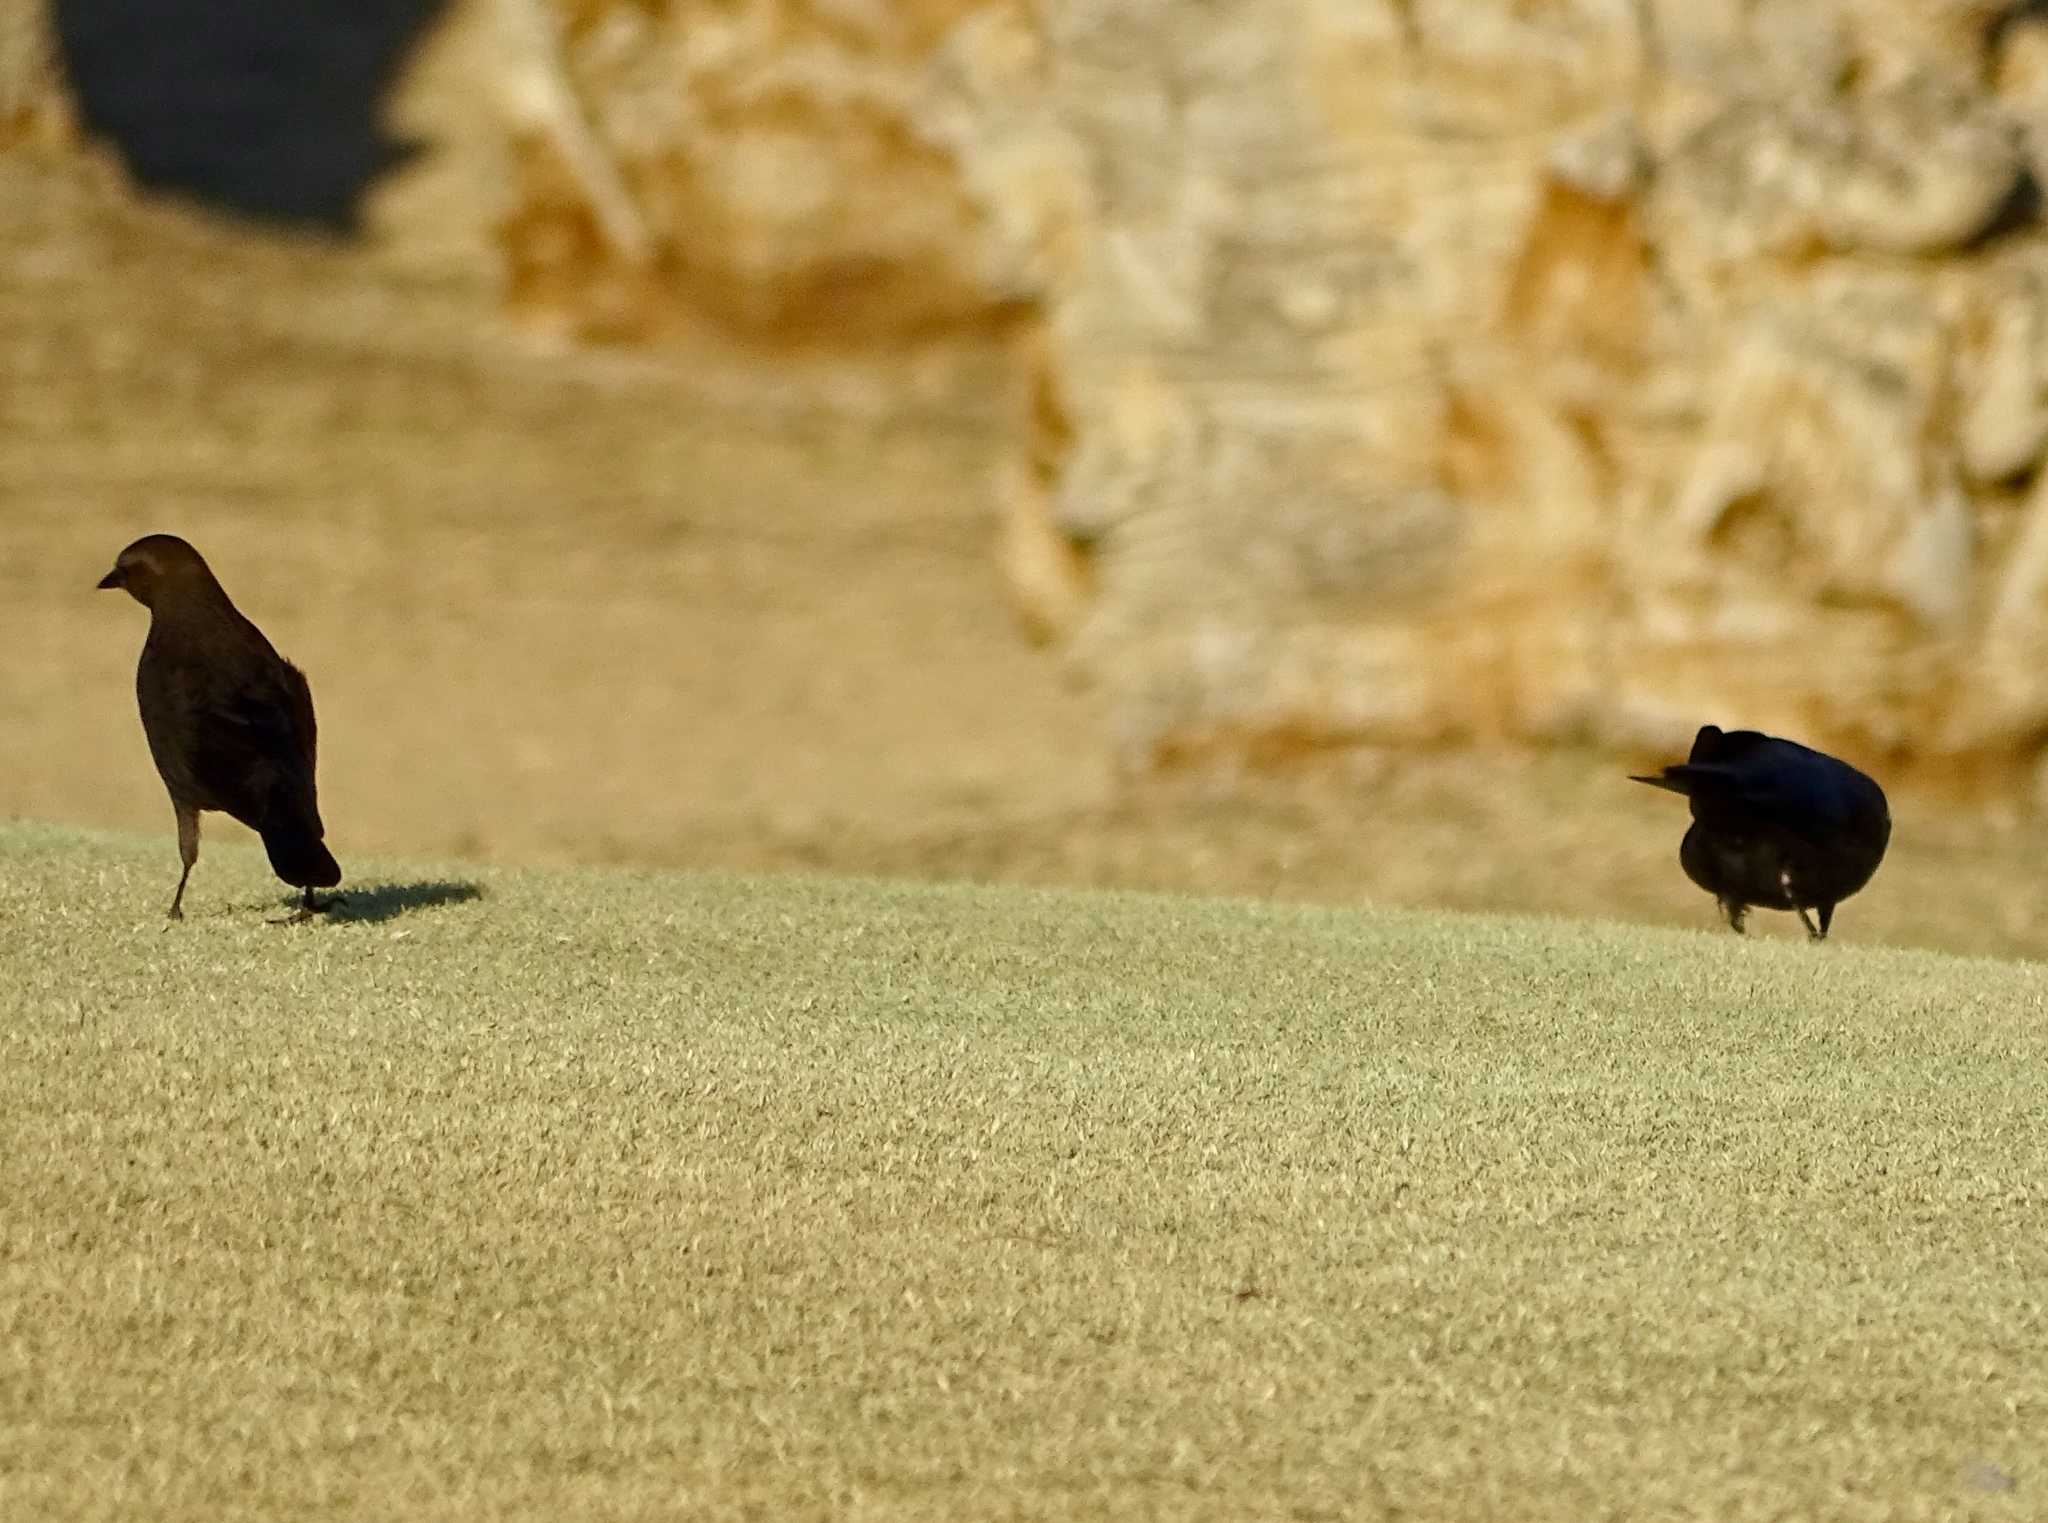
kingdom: Animalia
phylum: Chordata
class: Aves
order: Passeriformes
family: Icteridae
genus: Euphagus
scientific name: Euphagus cyanocephalus
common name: Brewer's blackbird
